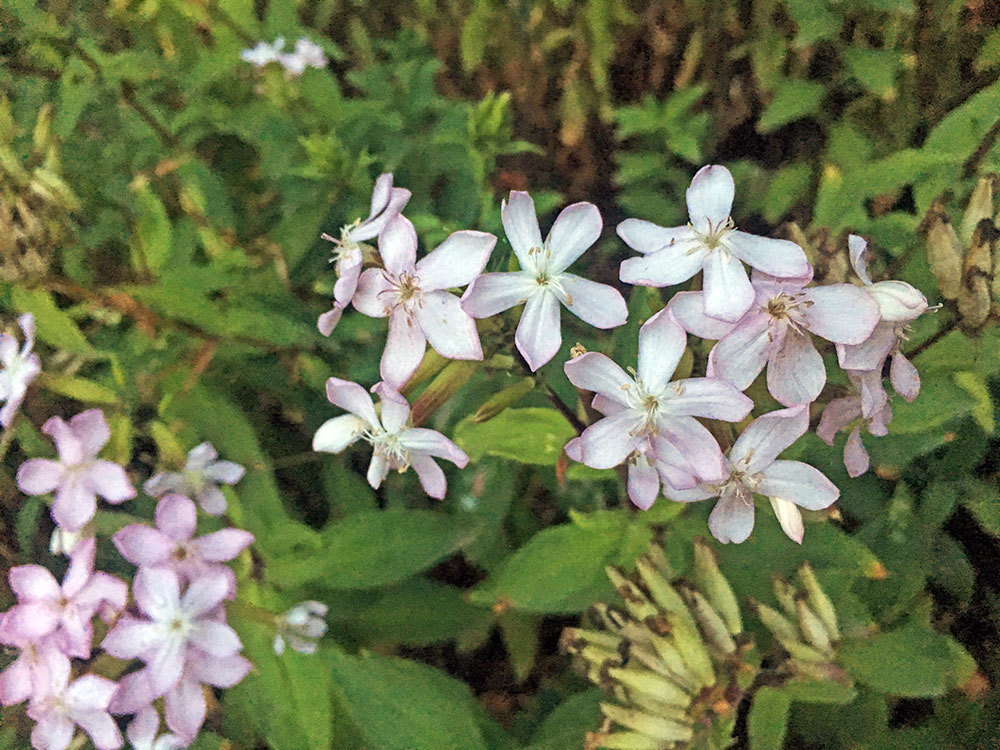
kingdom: Plantae
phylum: Tracheophyta
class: Magnoliopsida
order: Caryophyllales
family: Caryophyllaceae
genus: Saponaria
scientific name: Saponaria officinalis
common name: Soapwort
